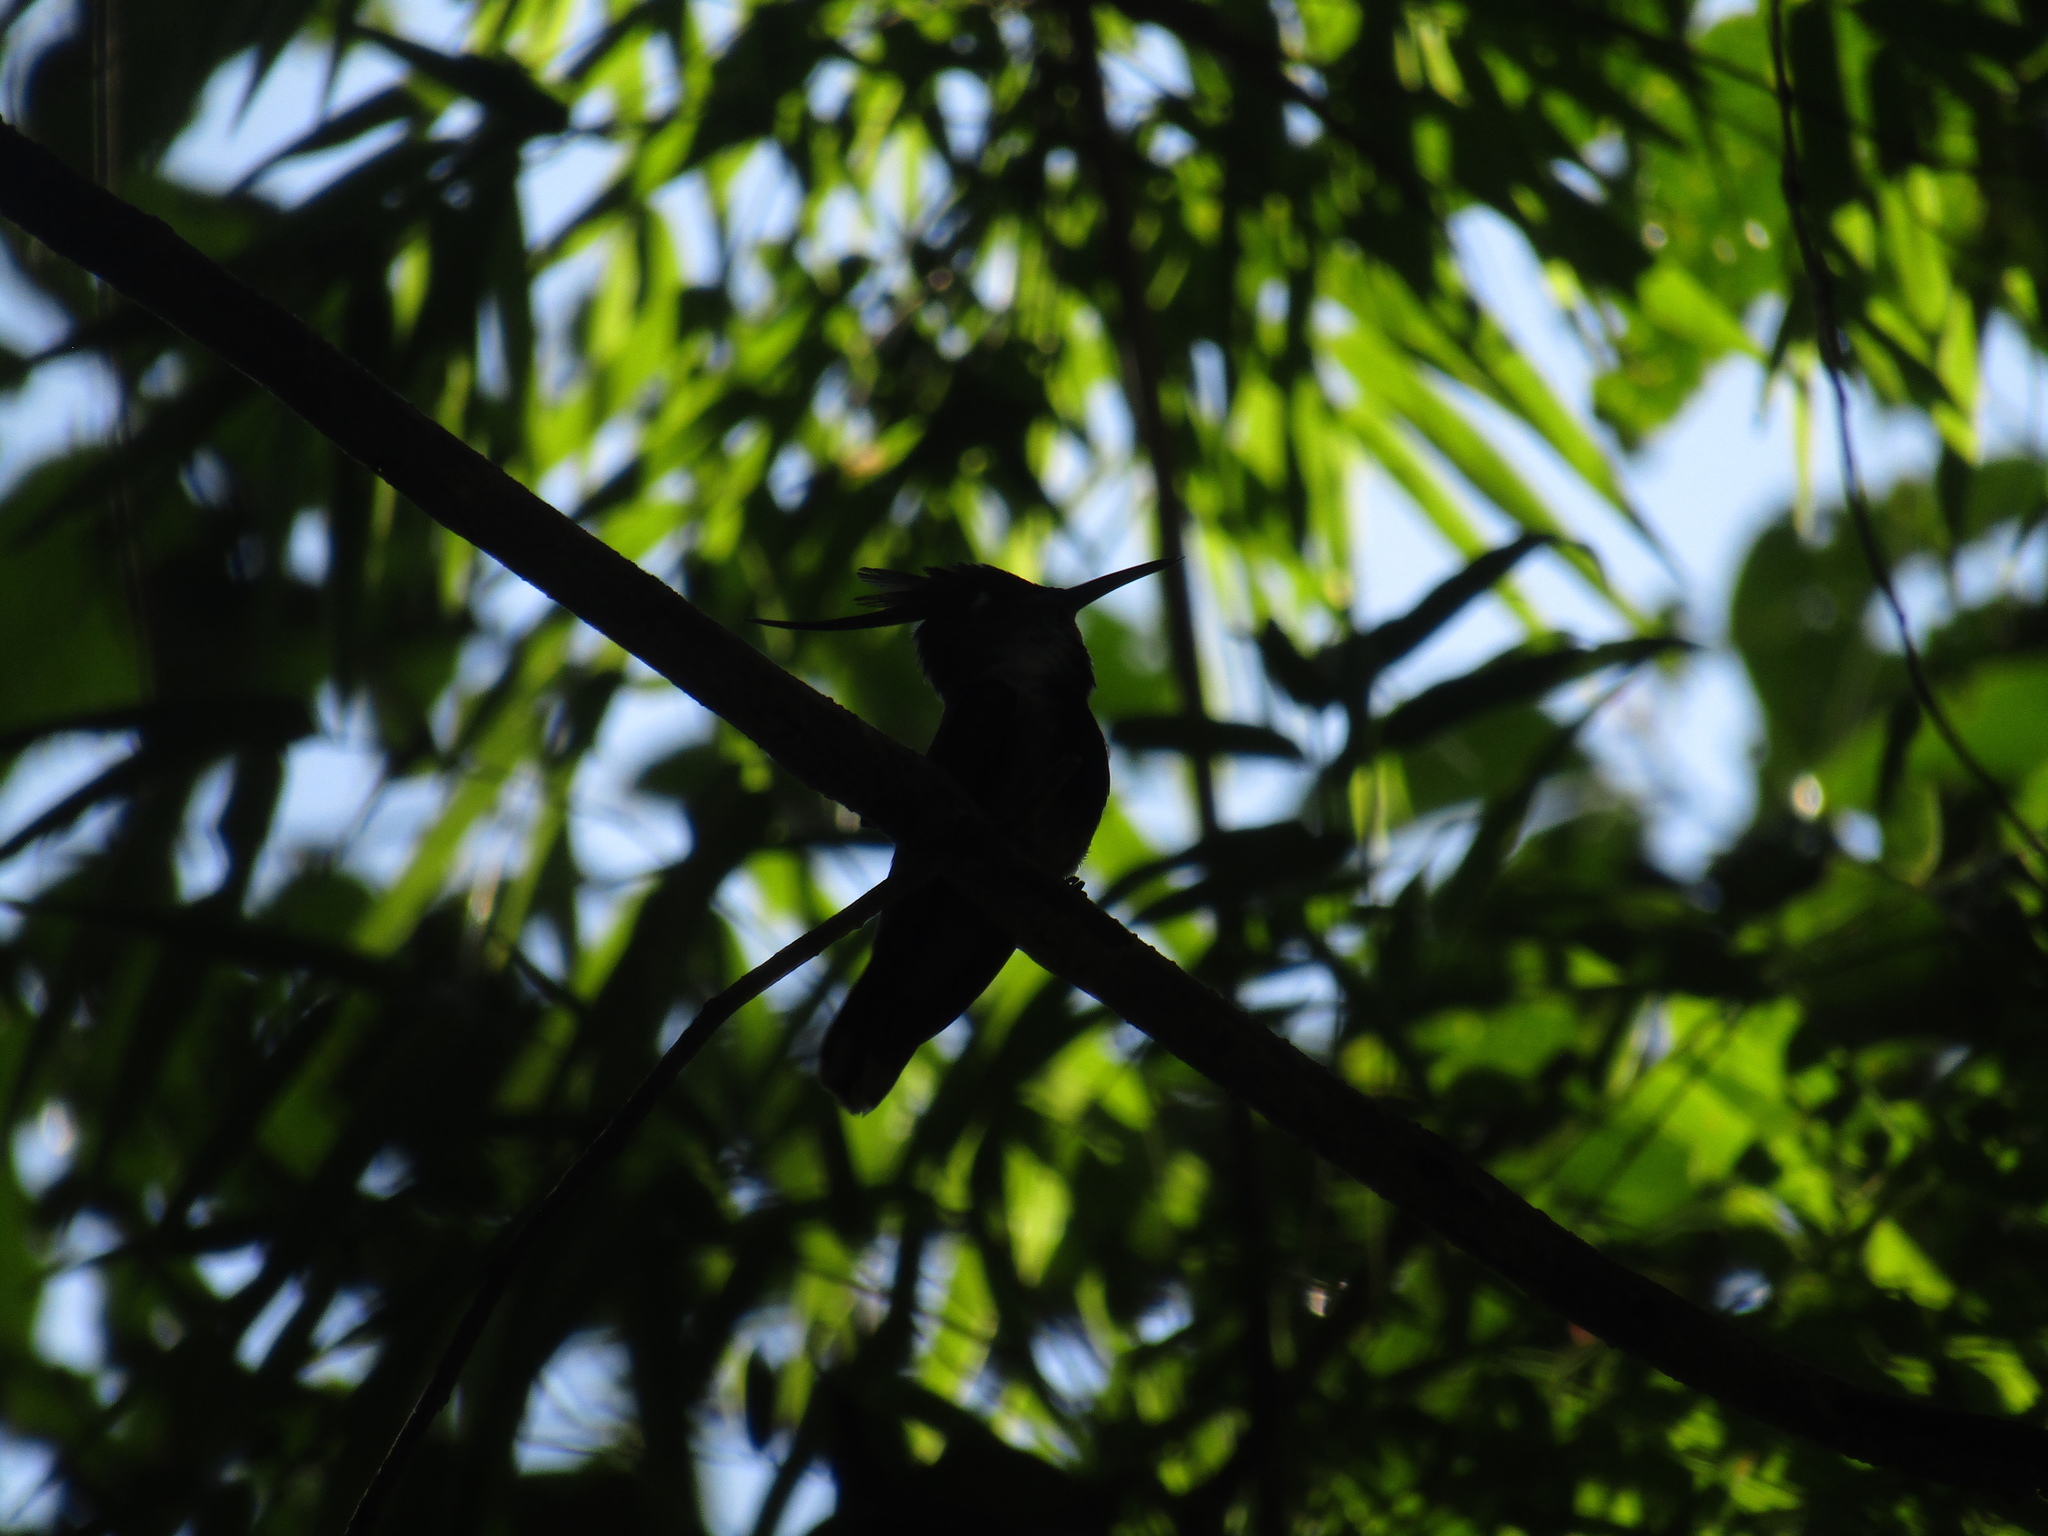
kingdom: Animalia
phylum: Chordata
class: Aves
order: Apodiformes
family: Trochilidae
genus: Stephanoxis
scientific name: Stephanoxis loddigesii
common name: Purple-crowned plovercrest
